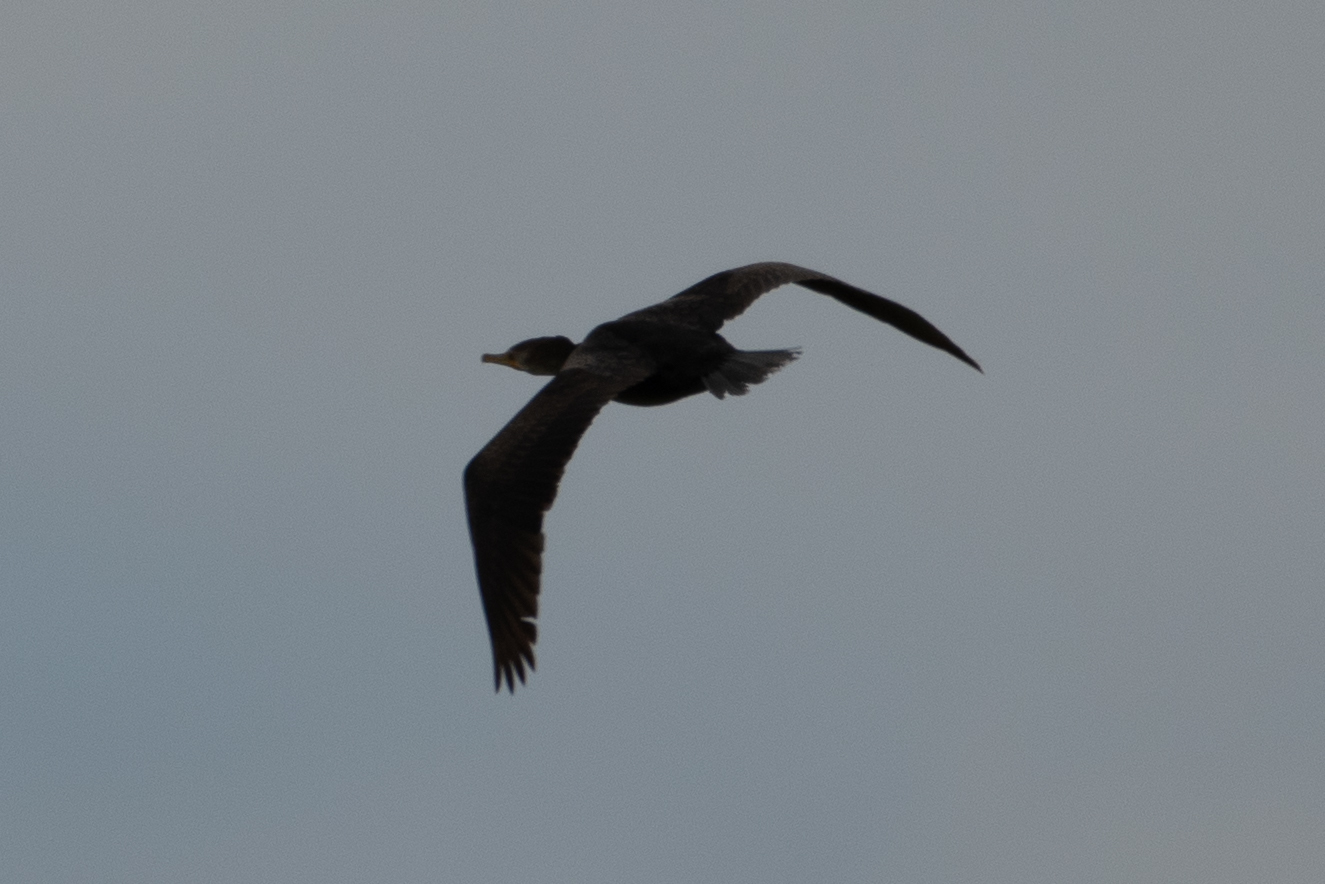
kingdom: Animalia
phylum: Chordata
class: Aves
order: Suliformes
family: Phalacrocoracidae
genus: Phalacrocorax
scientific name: Phalacrocorax auritus
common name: Double-crested cormorant
